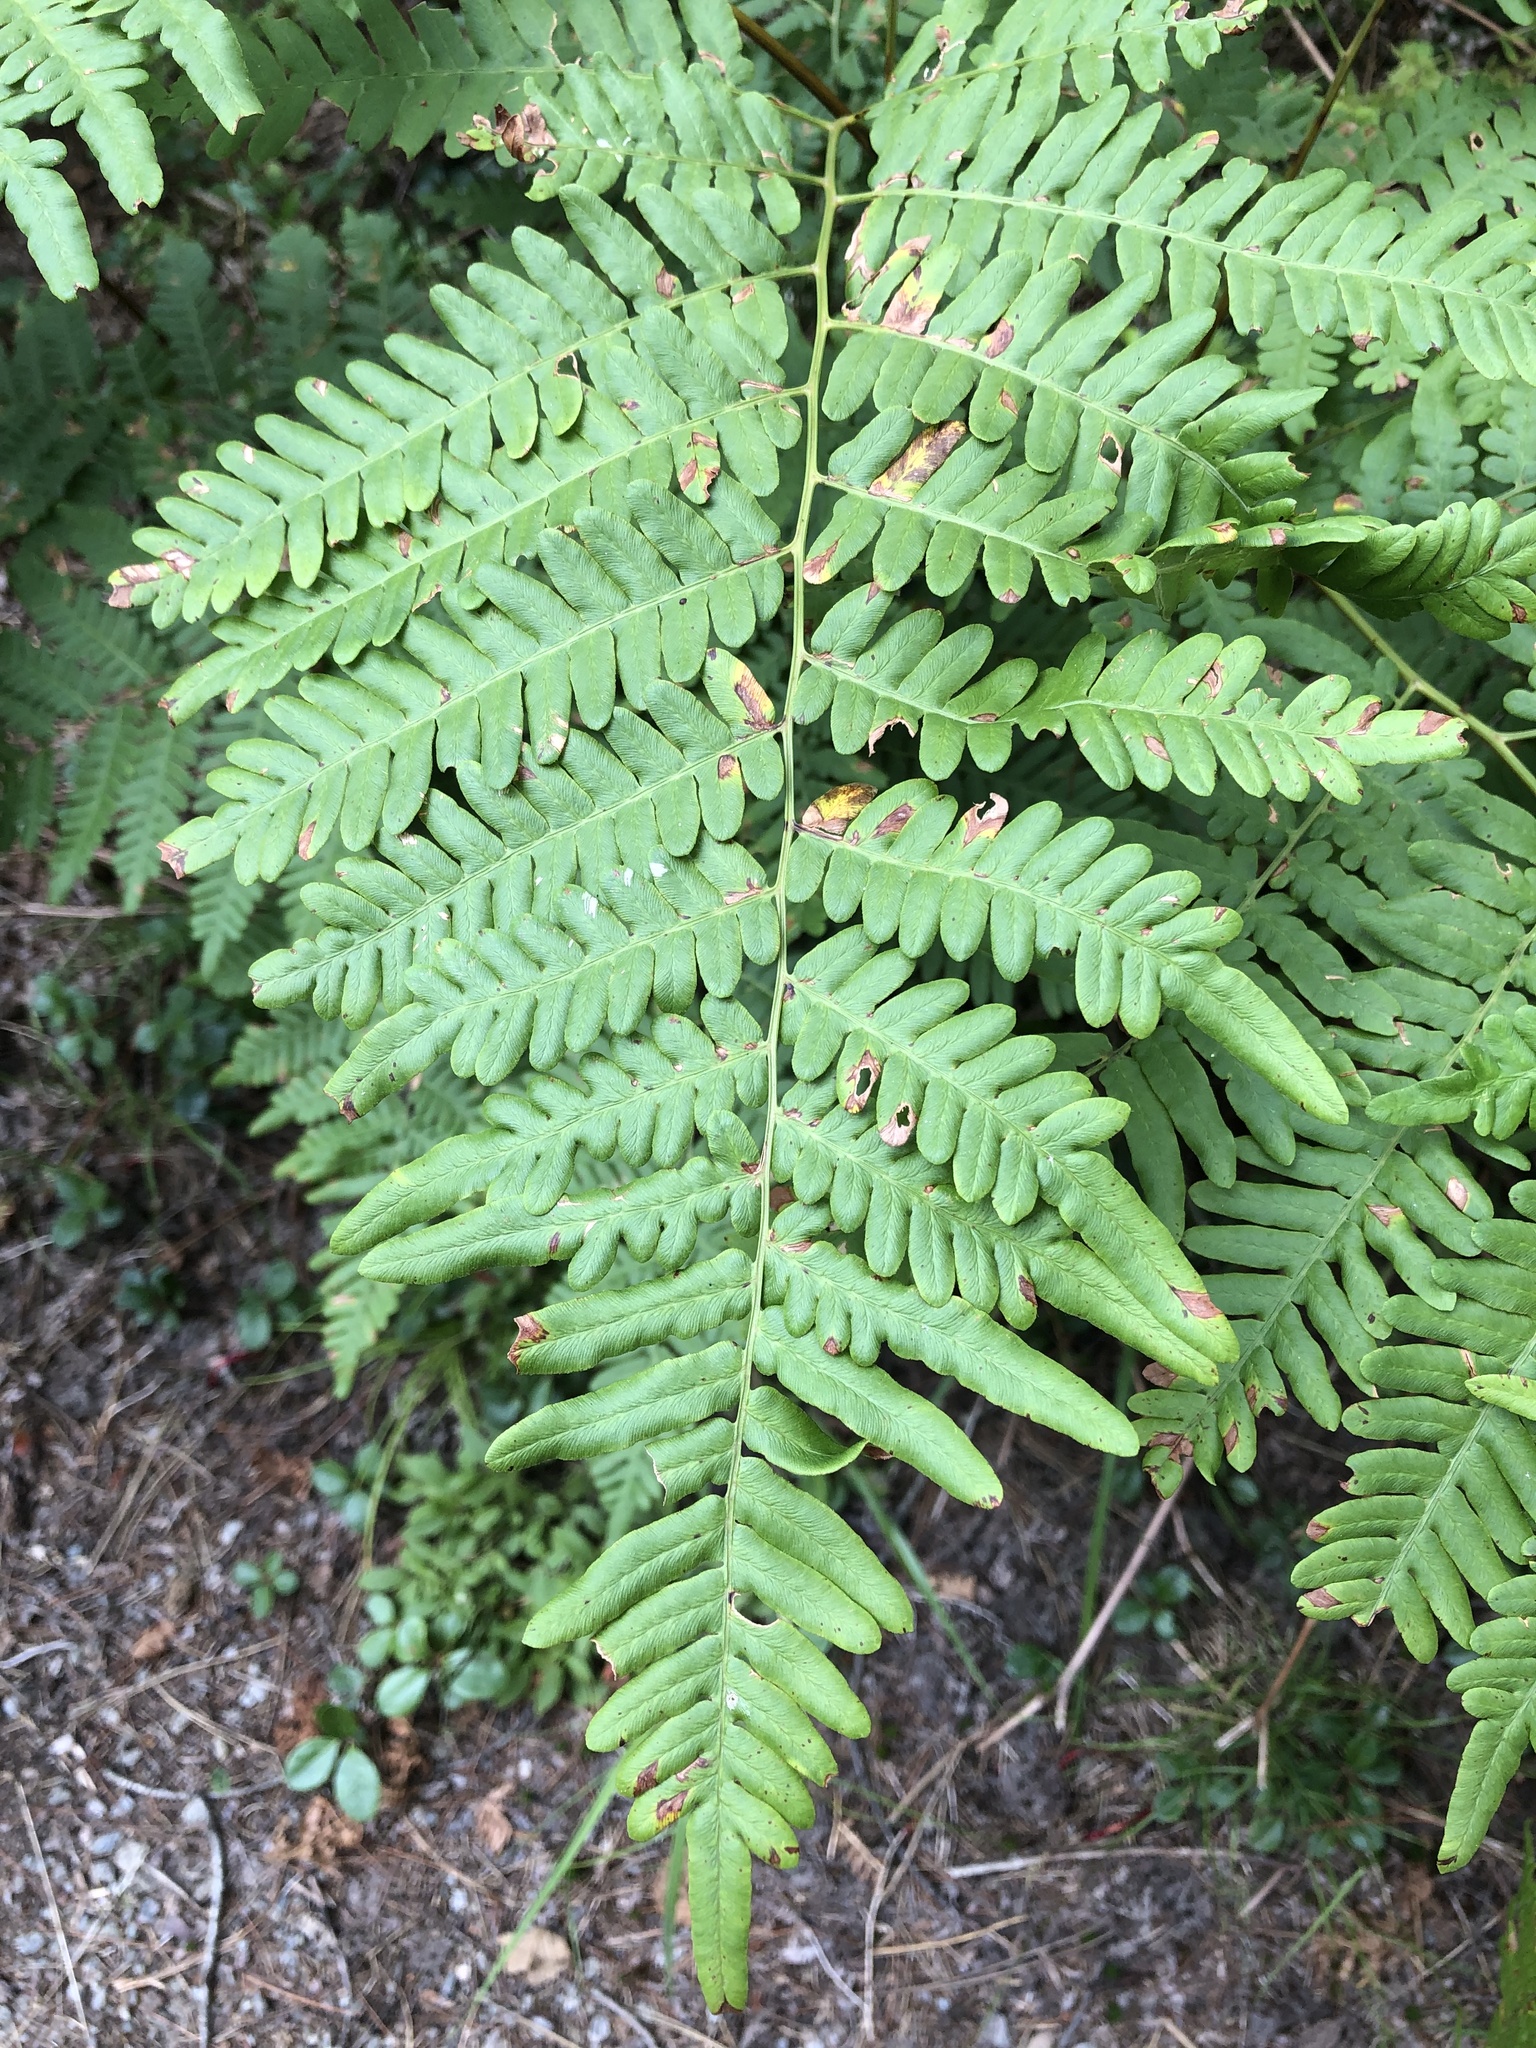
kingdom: Plantae
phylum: Tracheophyta
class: Polypodiopsida
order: Polypodiales
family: Dennstaedtiaceae
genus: Pteridium
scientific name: Pteridium aquilinum
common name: Bracken
